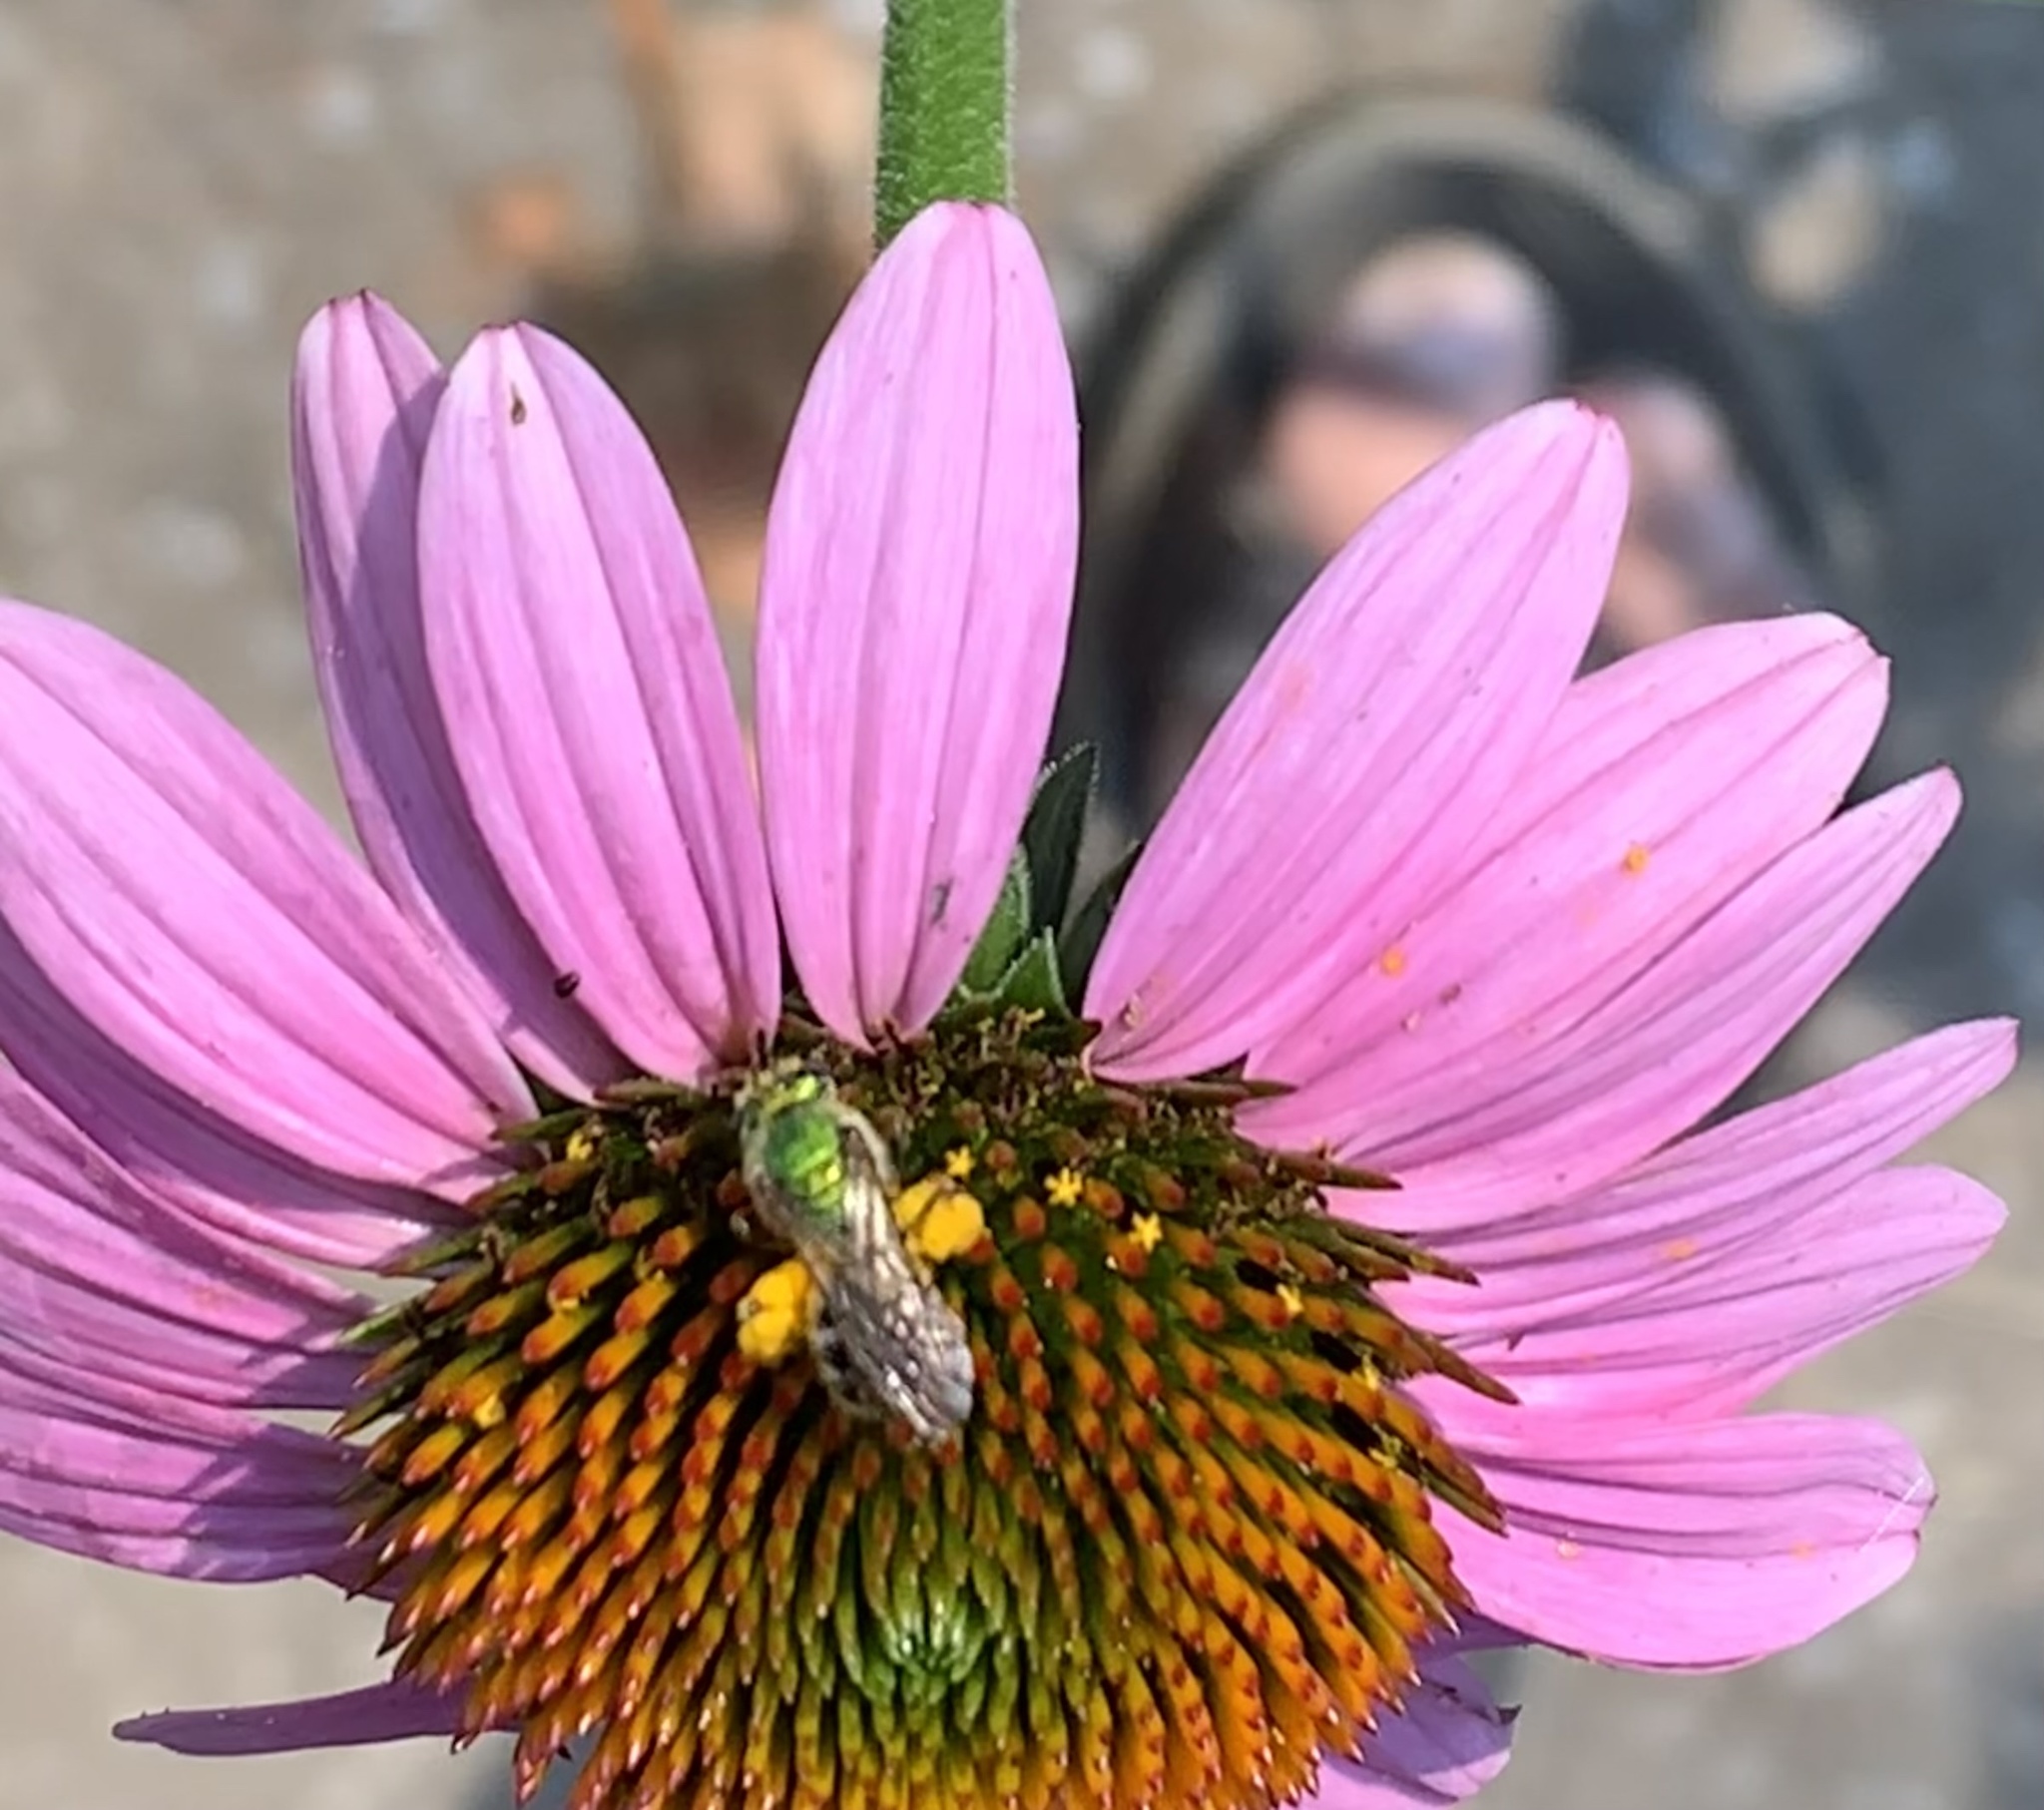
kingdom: Animalia
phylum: Arthropoda
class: Insecta
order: Hymenoptera
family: Halictidae
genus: Agapostemon
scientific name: Agapostemon virescens
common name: Bicolored striped sweat bee
